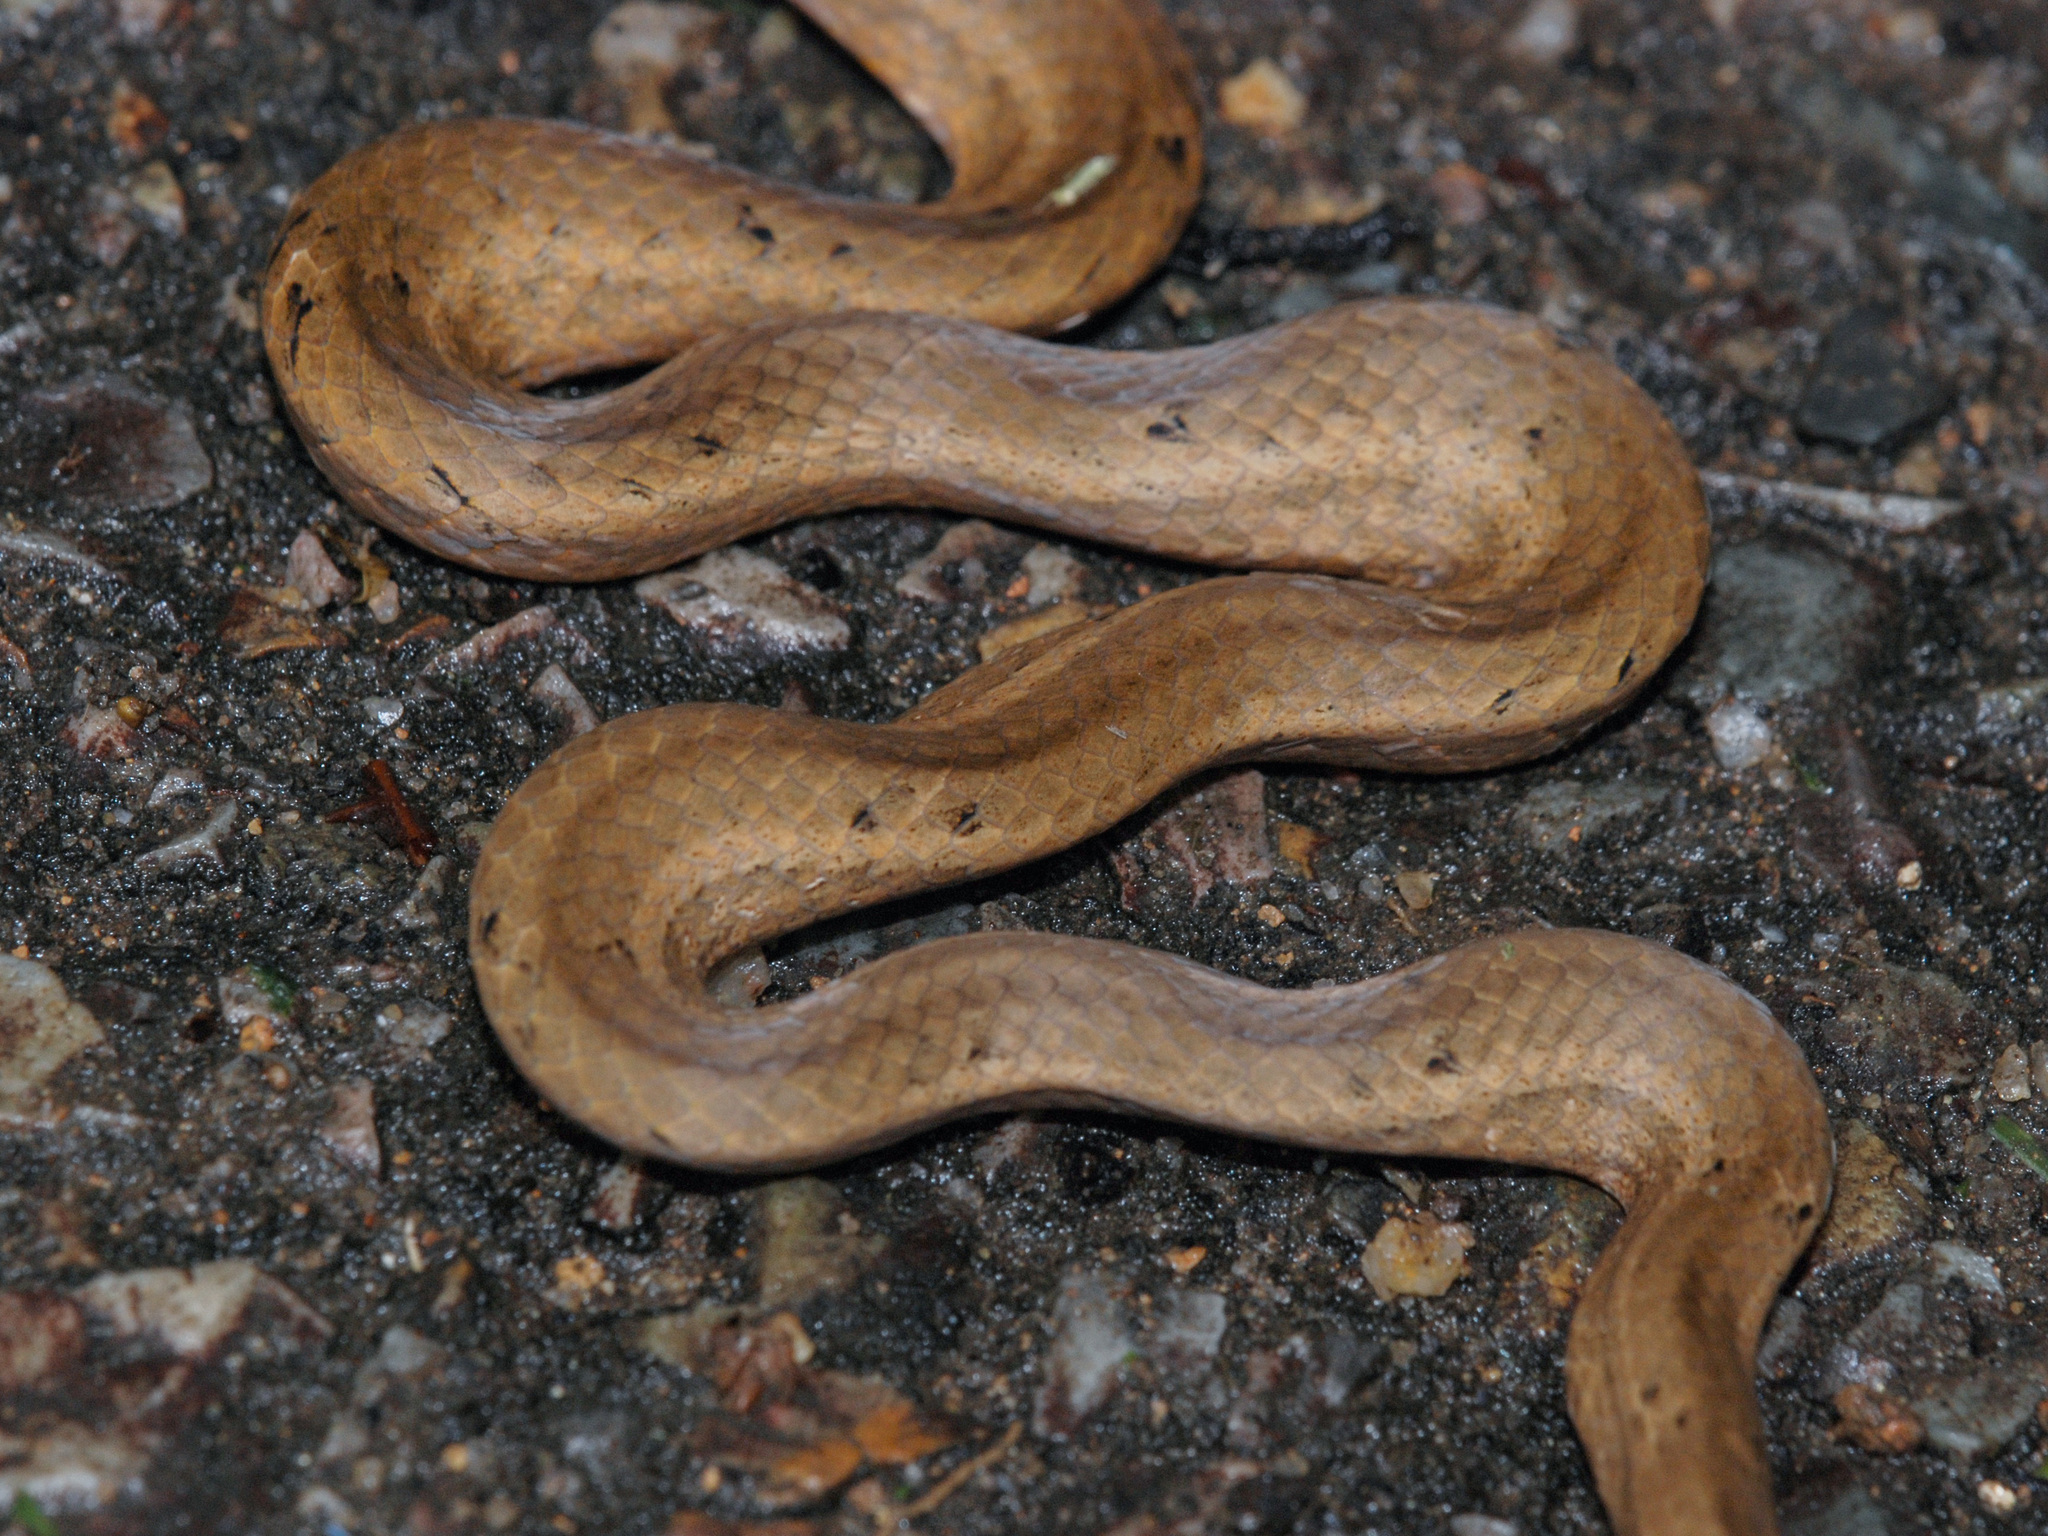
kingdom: Animalia
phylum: Chordata
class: Squamata
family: Pseudaspididae
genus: Psammodynastes
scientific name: Psammodynastes pulverulentus
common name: Common mock viper
